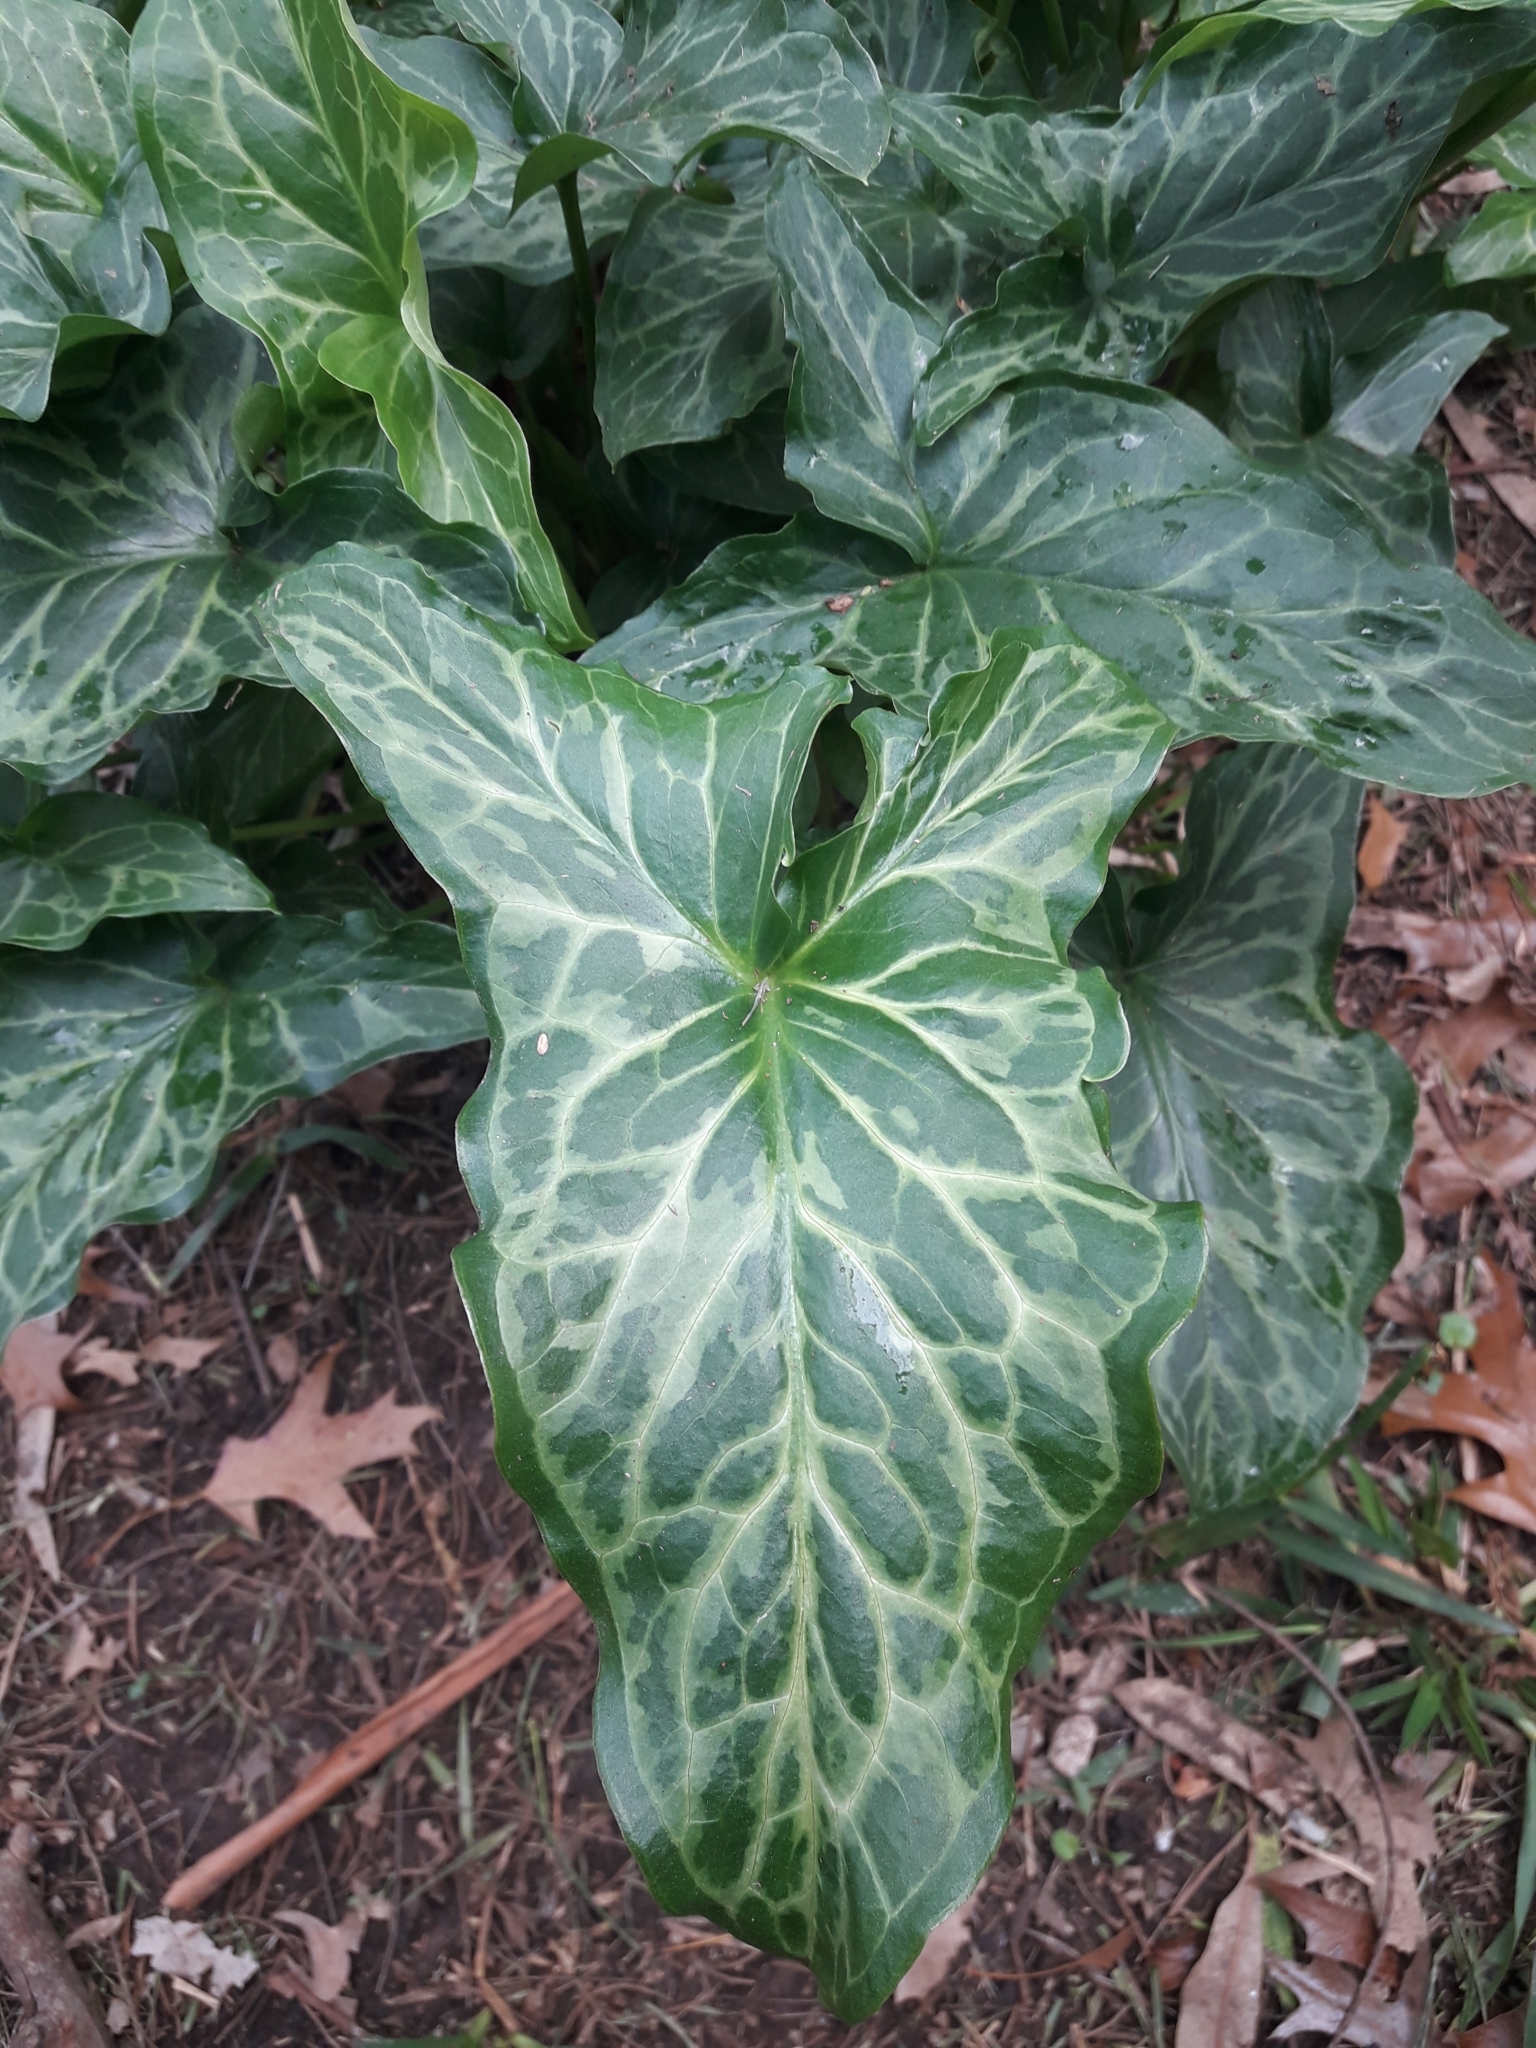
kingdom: Plantae
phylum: Tracheophyta
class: Liliopsida
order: Alismatales
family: Araceae
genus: Arum
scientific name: Arum italicum
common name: Italian lords-and-ladies
